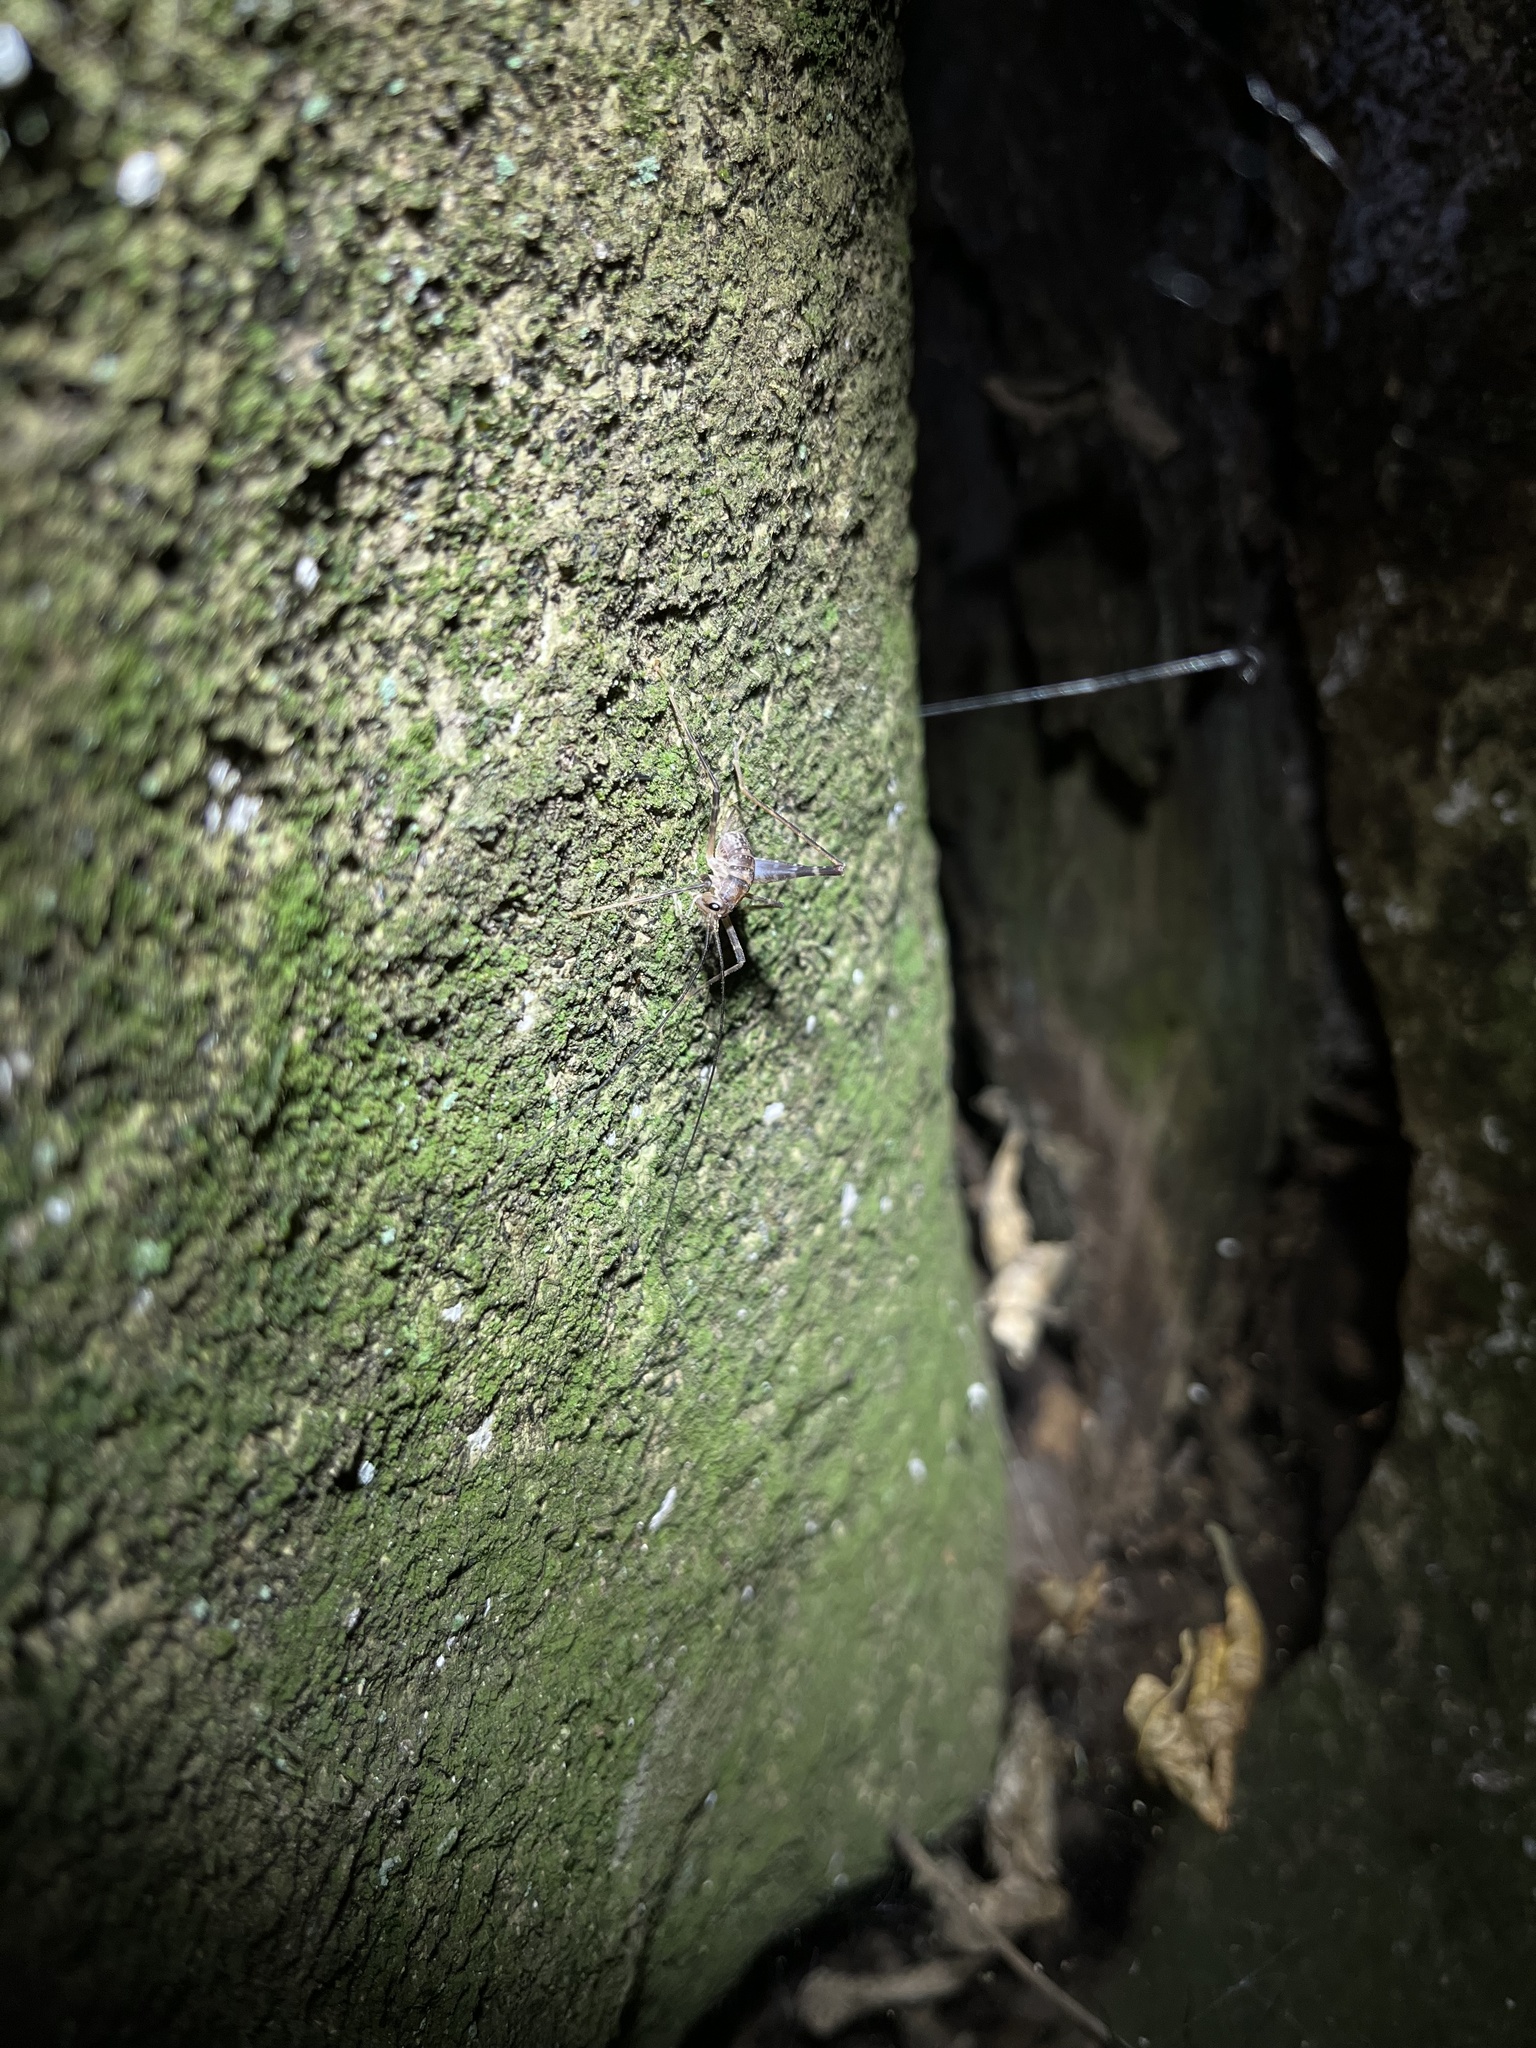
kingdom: Animalia
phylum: Arthropoda
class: Insecta
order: Orthoptera
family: Rhaphidophoridae
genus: Pachyrhamma
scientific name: Pachyrhamma edwardsii
